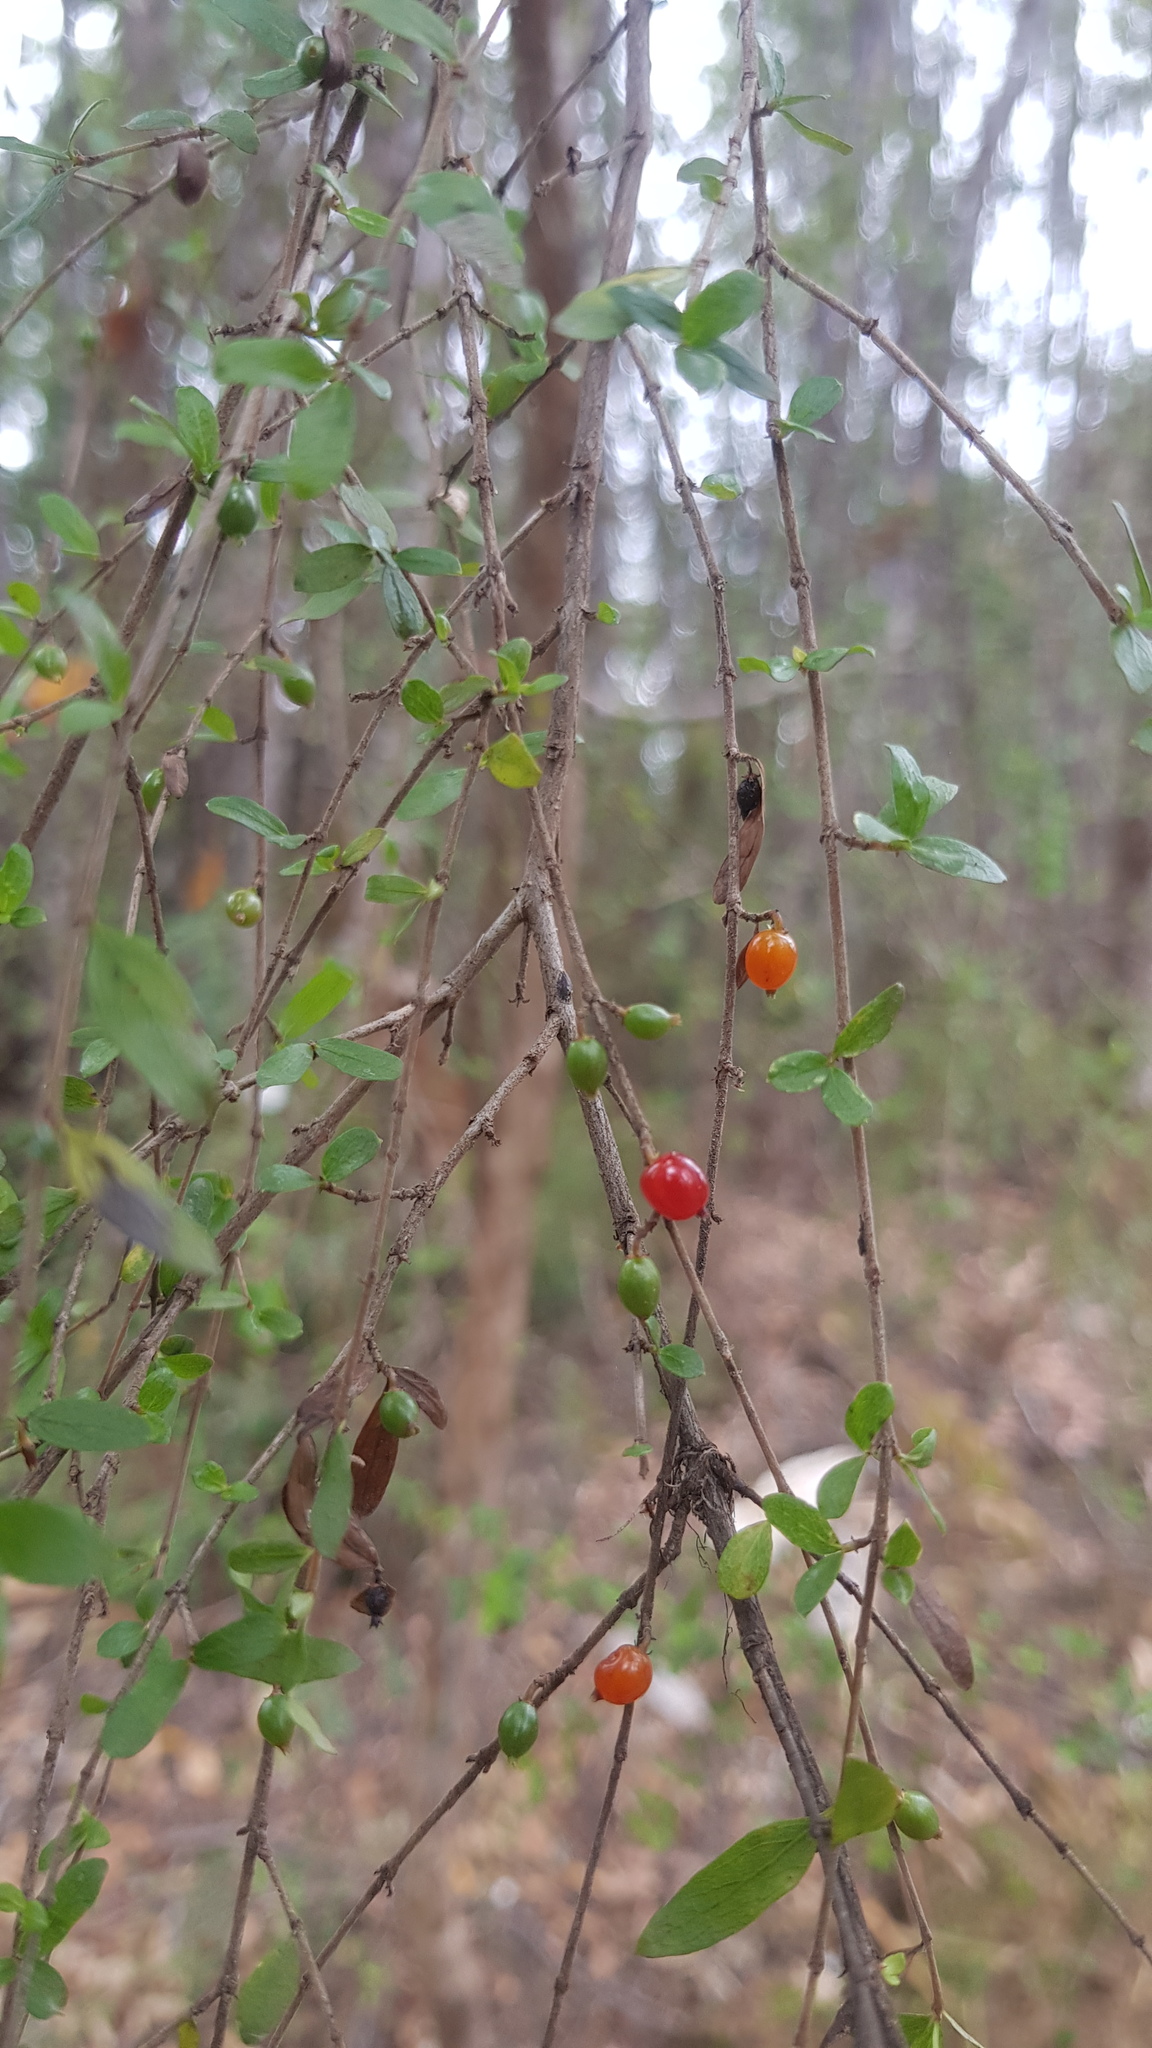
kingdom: Plantae
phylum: Tracheophyta
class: Magnoliopsida
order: Gentianales
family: Rubiaceae
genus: Coprosma
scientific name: Coprosma quadrifida
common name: Prickly currantbush
